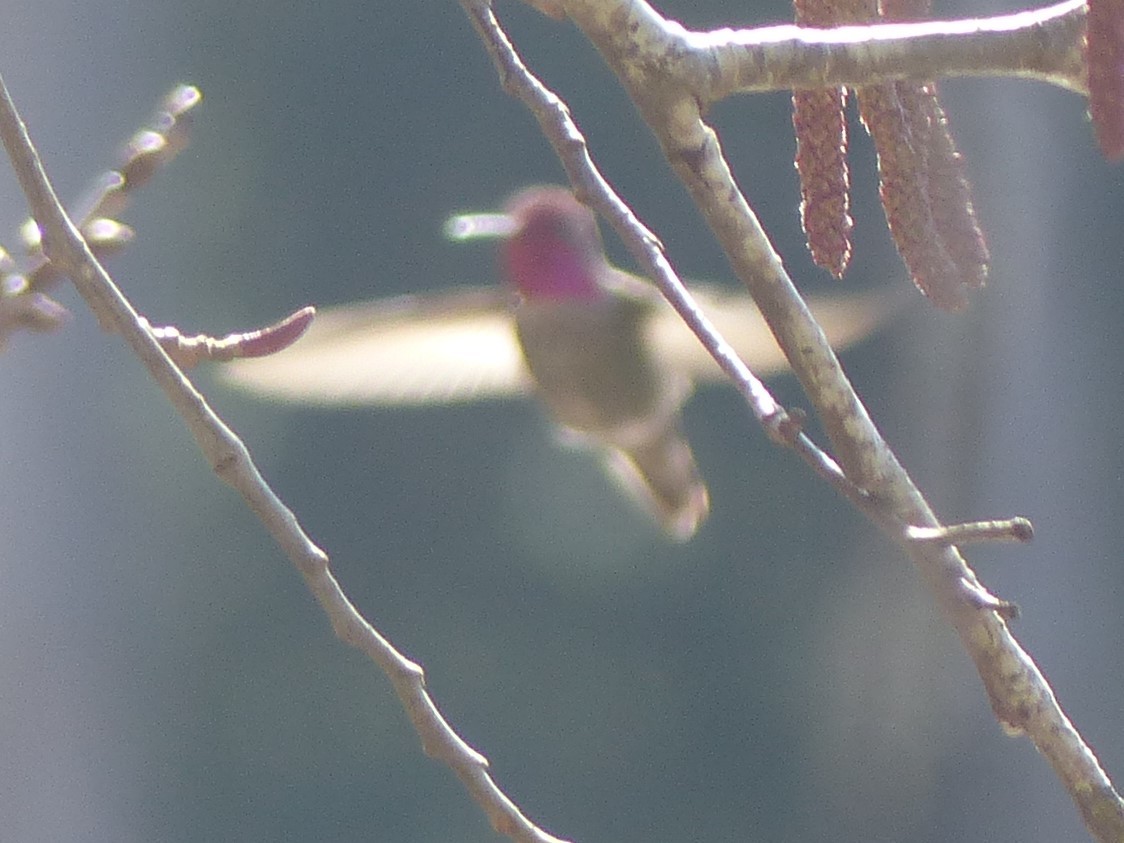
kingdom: Animalia
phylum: Chordata
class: Aves
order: Apodiformes
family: Trochilidae
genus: Calypte
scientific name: Calypte anna
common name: Anna's hummingbird
